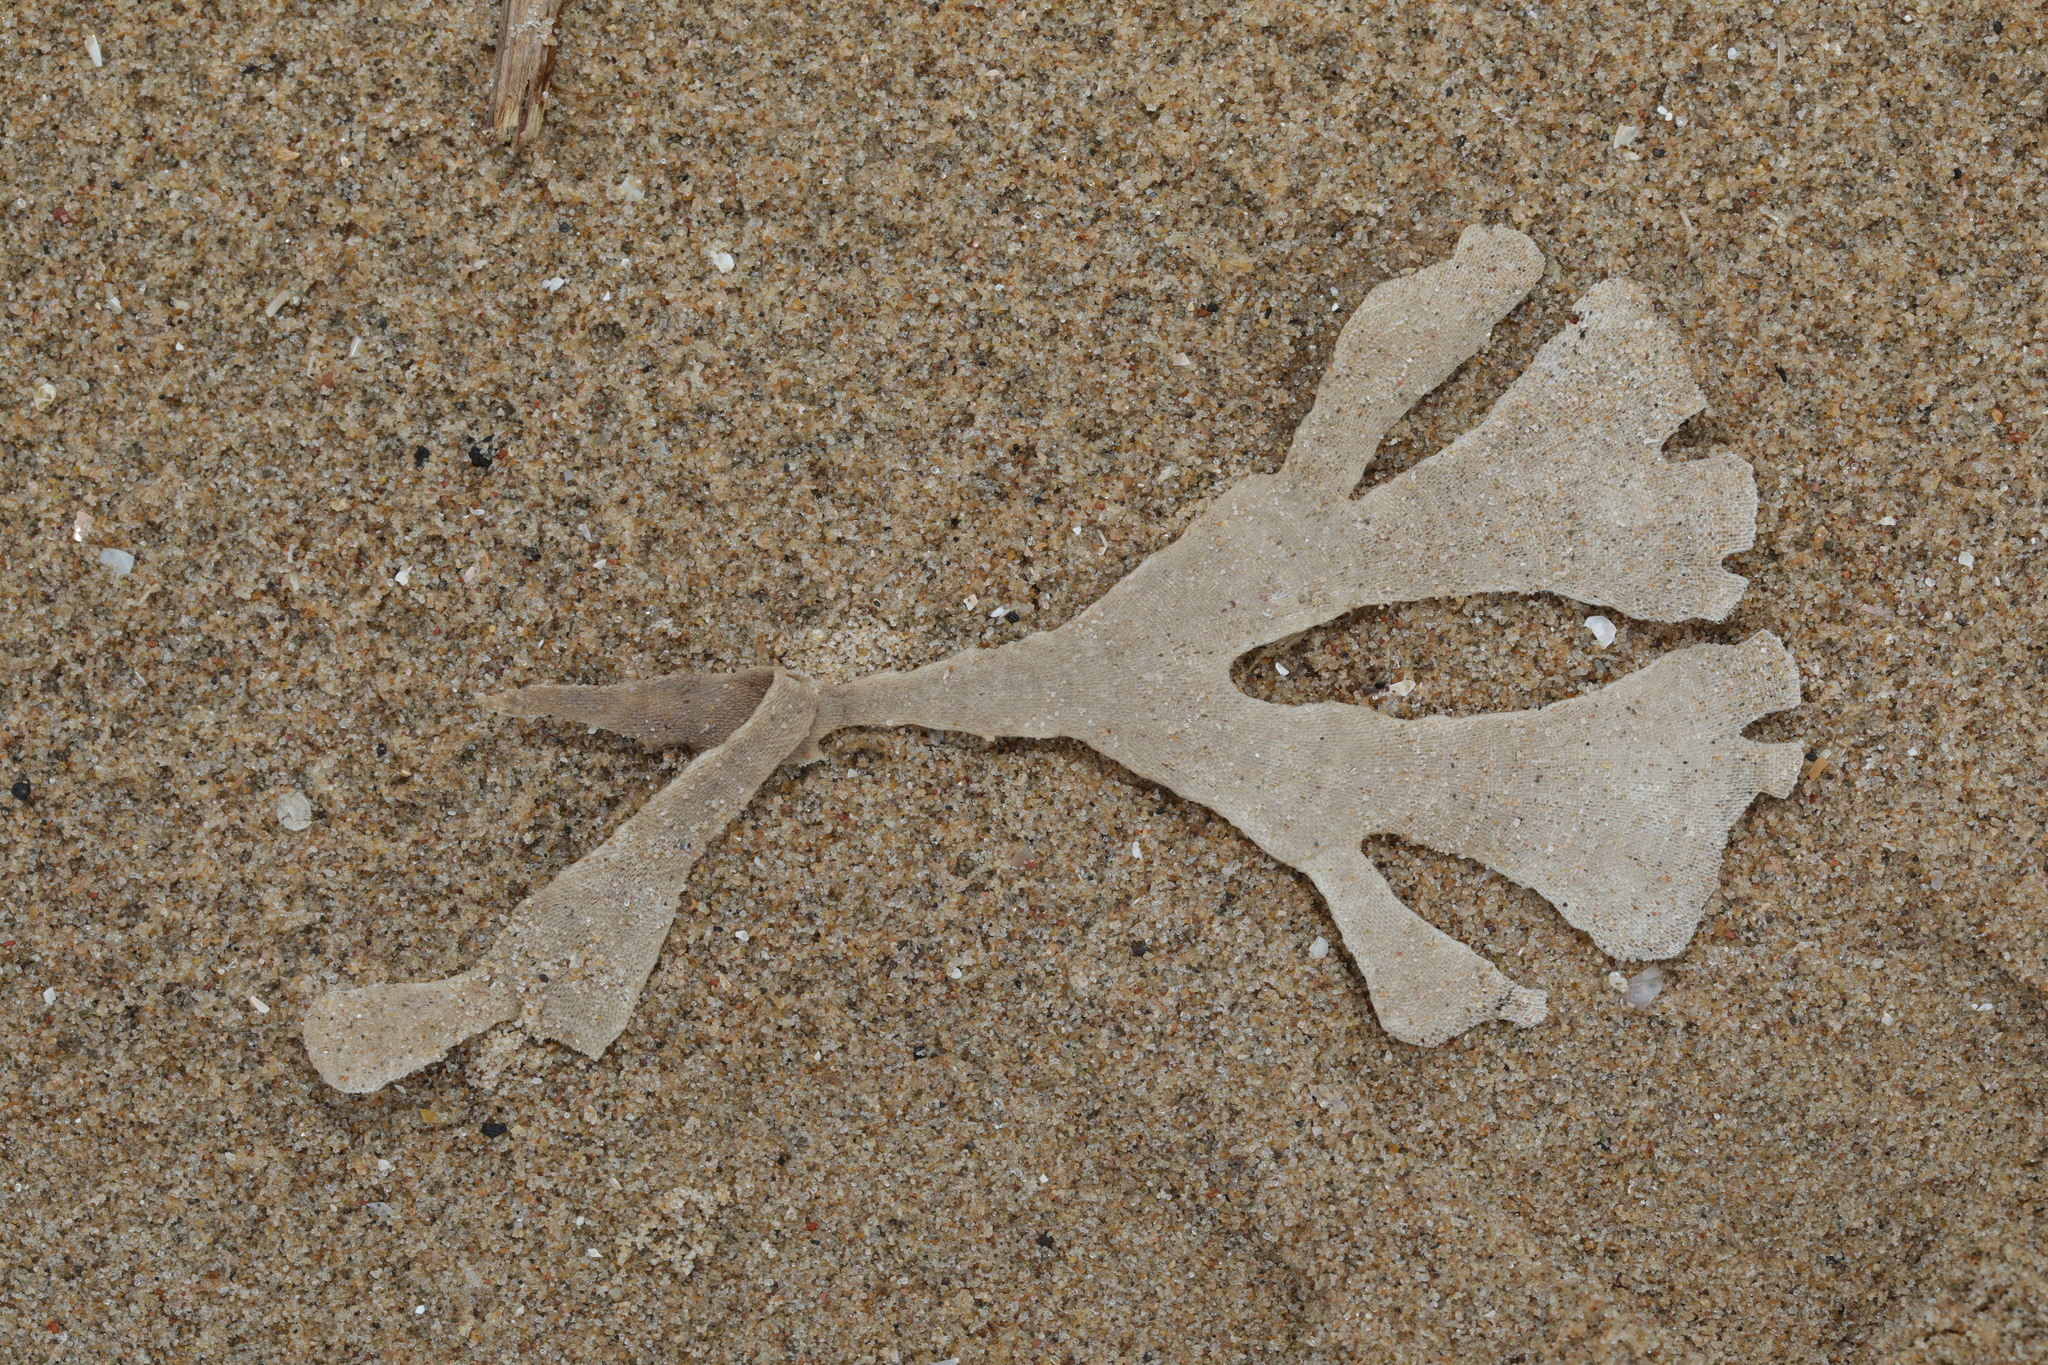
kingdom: Animalia
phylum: Bryozoa
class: Gymnolaemata
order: Cheilostomatida
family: Flustridae
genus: Flustra
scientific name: Flustra foliacea
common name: Hornwrack
